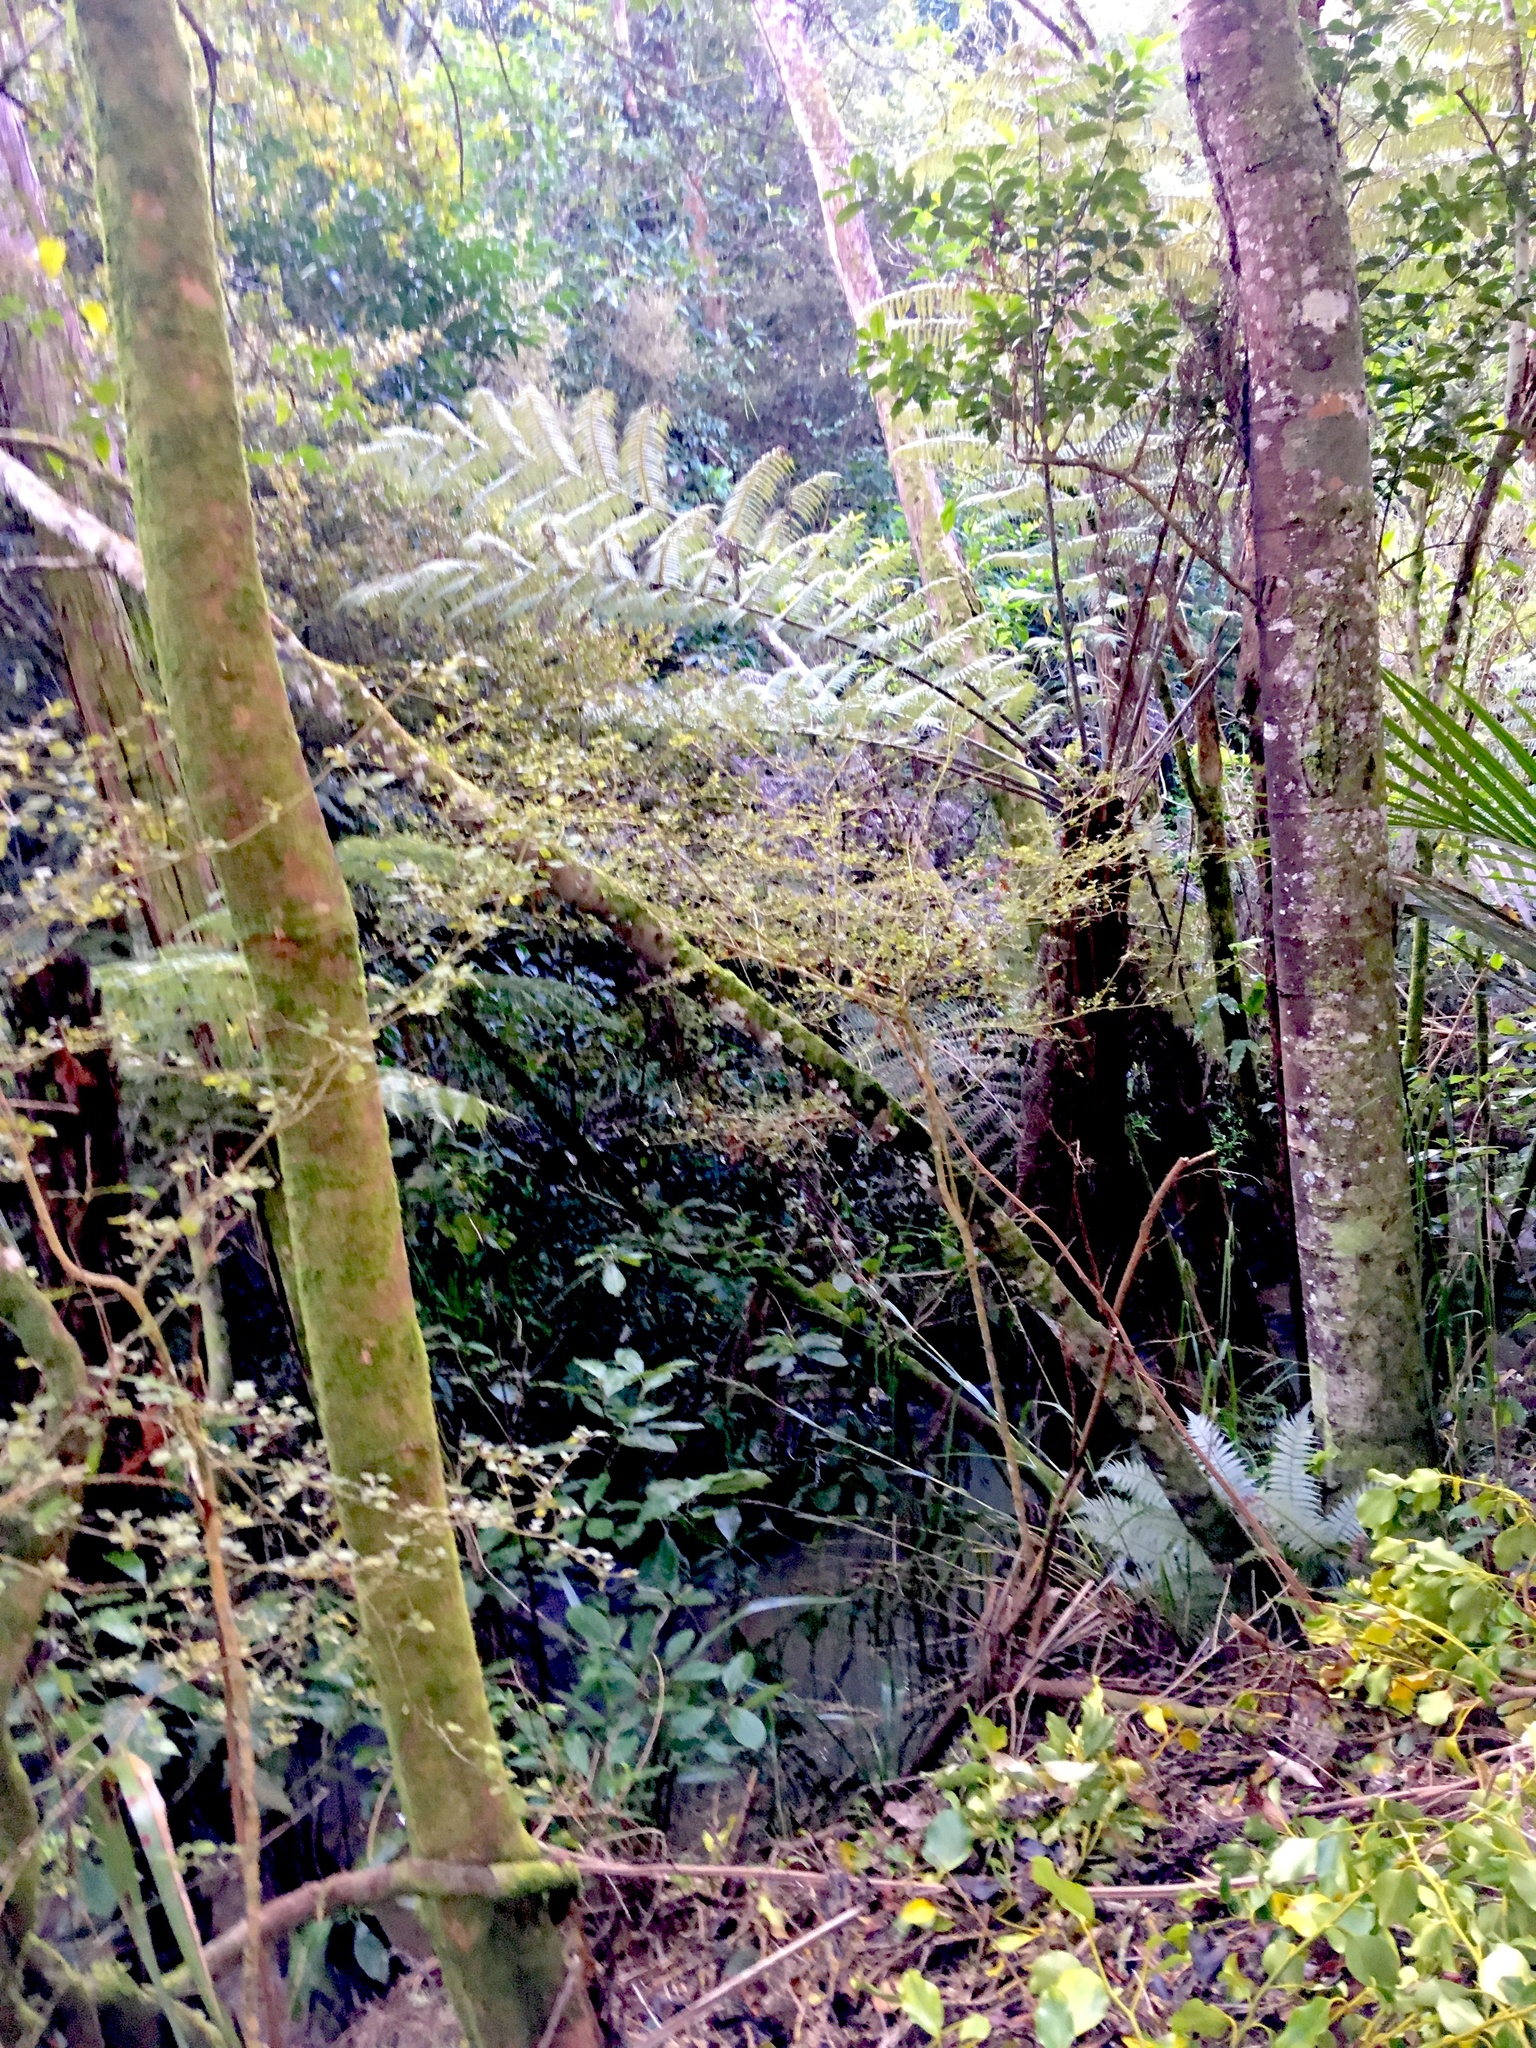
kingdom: Plantae
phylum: Tracheophyta
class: Magnoliopsida
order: Gentianales
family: Rubiaceae
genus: Coprosma
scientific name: Coprosma areolata
